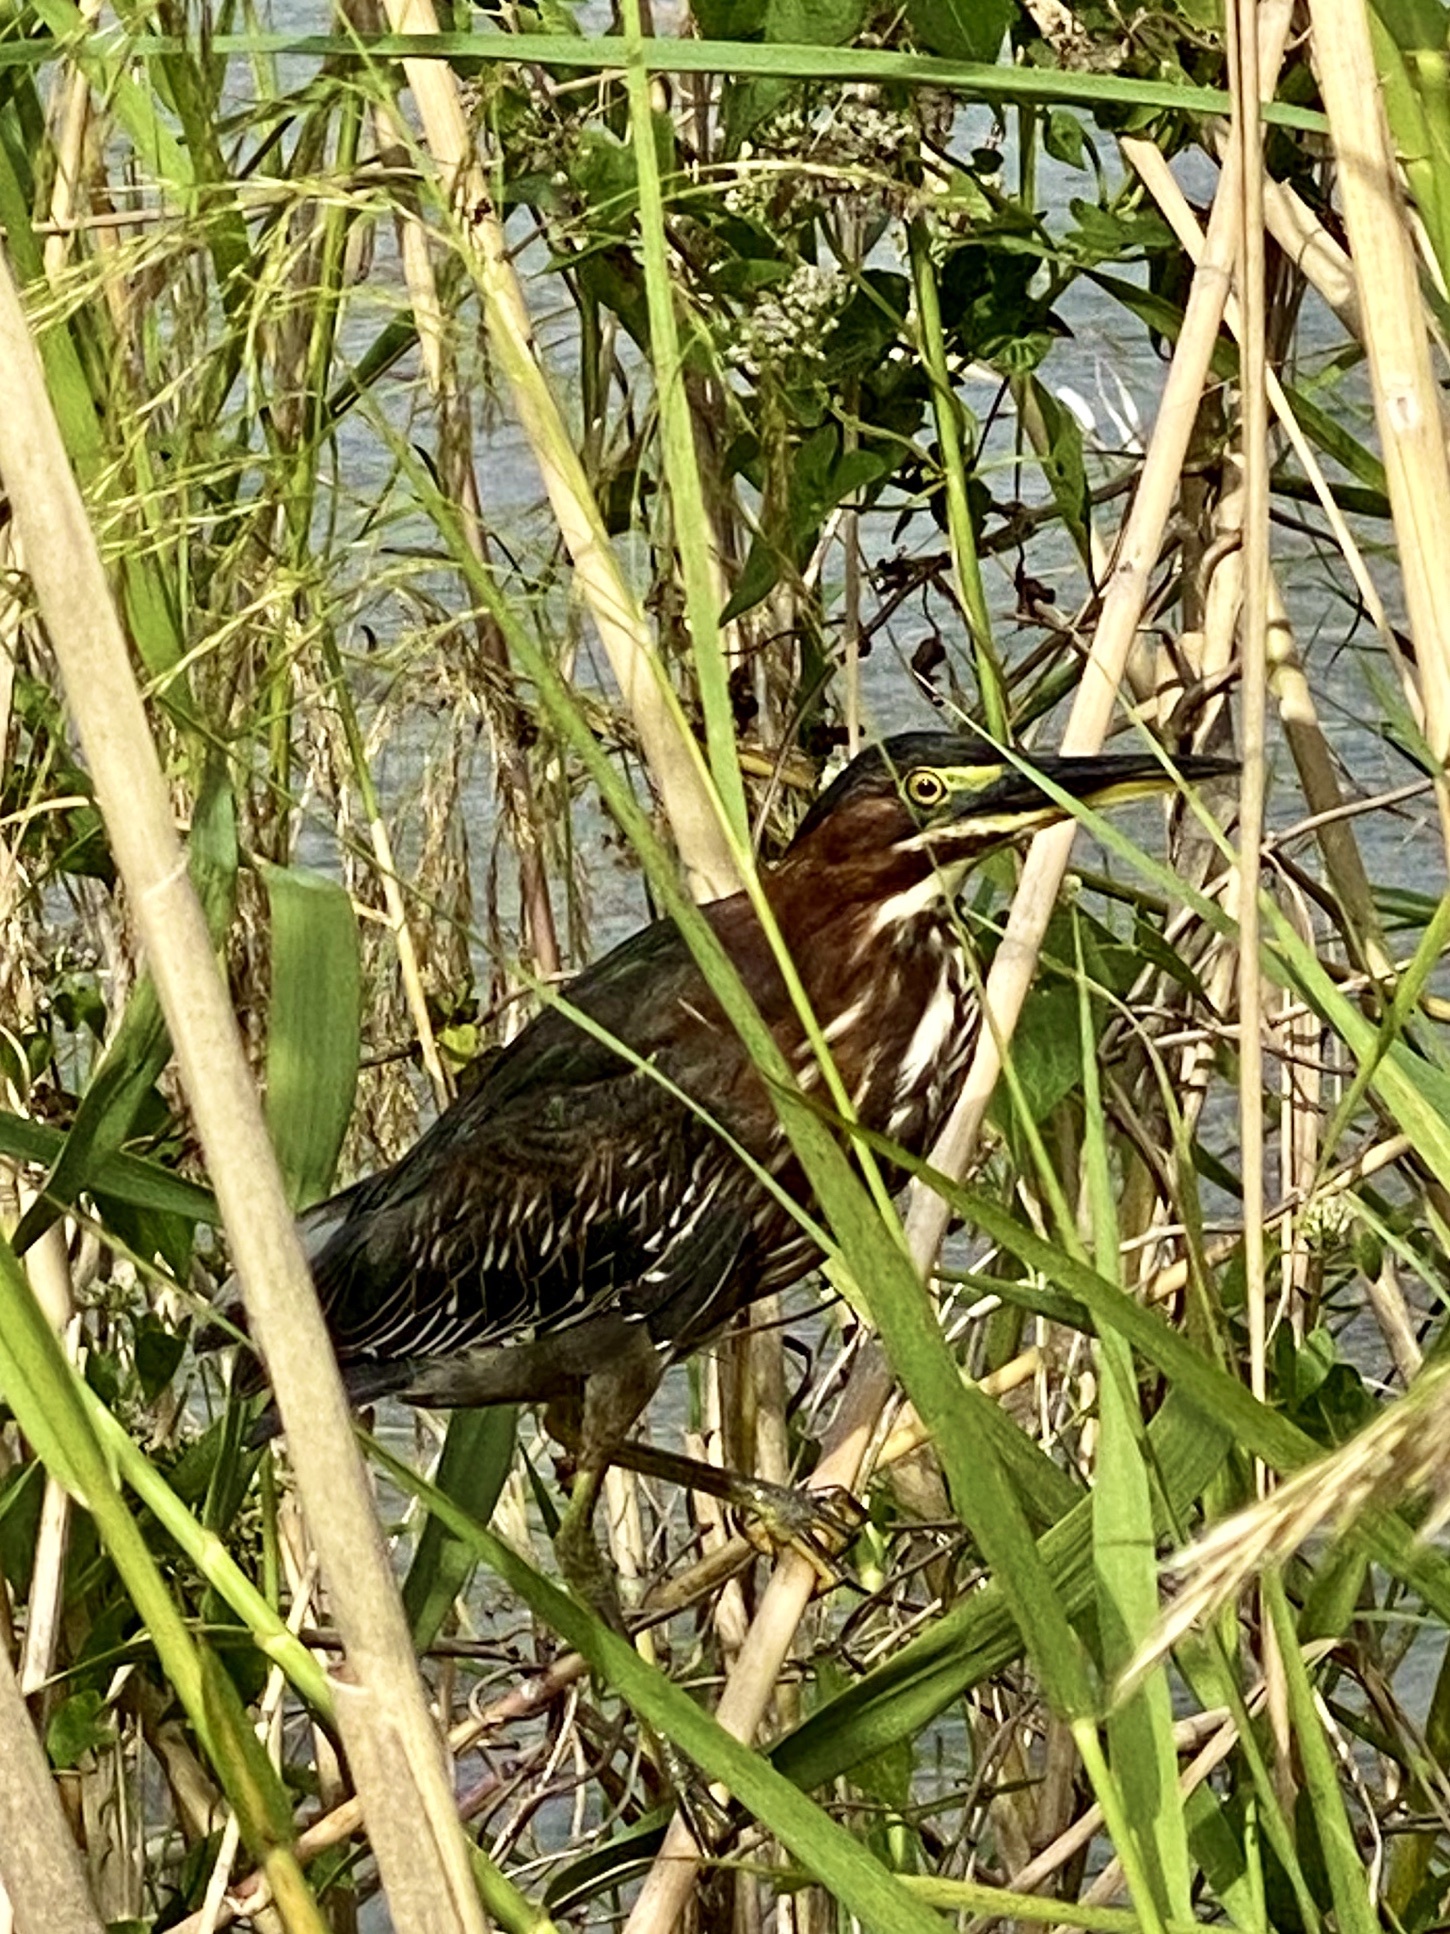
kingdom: Animalia
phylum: Chordata
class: Aves
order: Pelecaniformes
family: Ardeidae
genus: Butorides
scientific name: Butorides virescens
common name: Green heron
